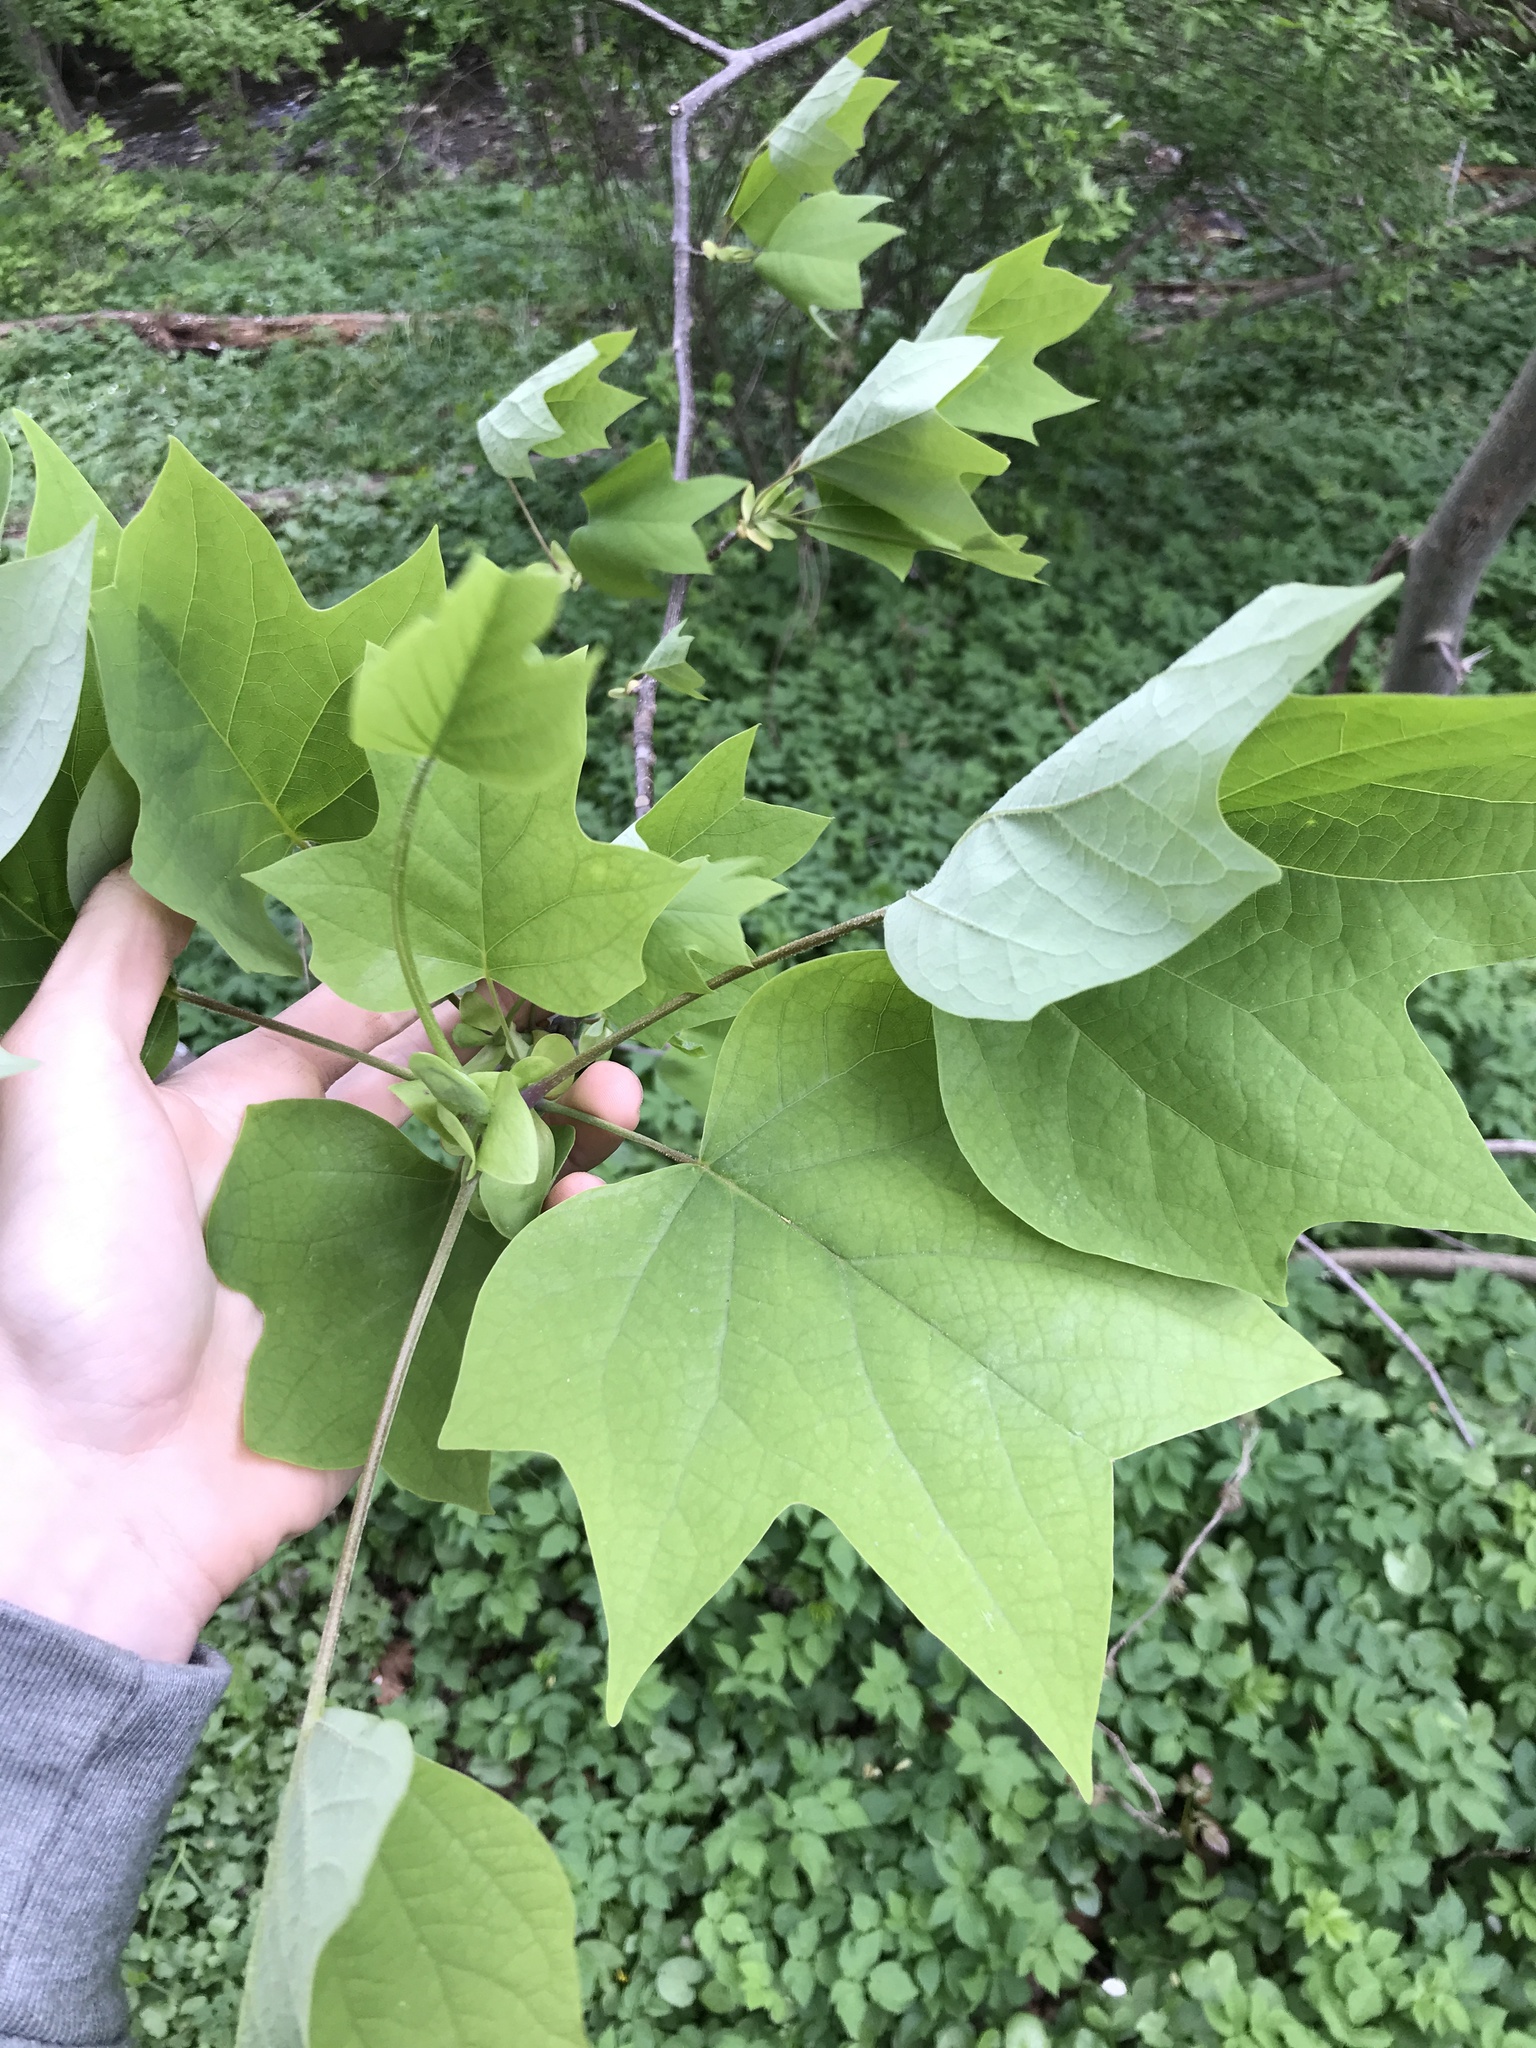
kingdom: Plantae
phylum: Tracheophyta
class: Magnoliopsida
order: Magnoliales
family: Magnoliaceae
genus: Liriodendron
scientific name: Liriodendron tulipifera
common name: Tulip tree
